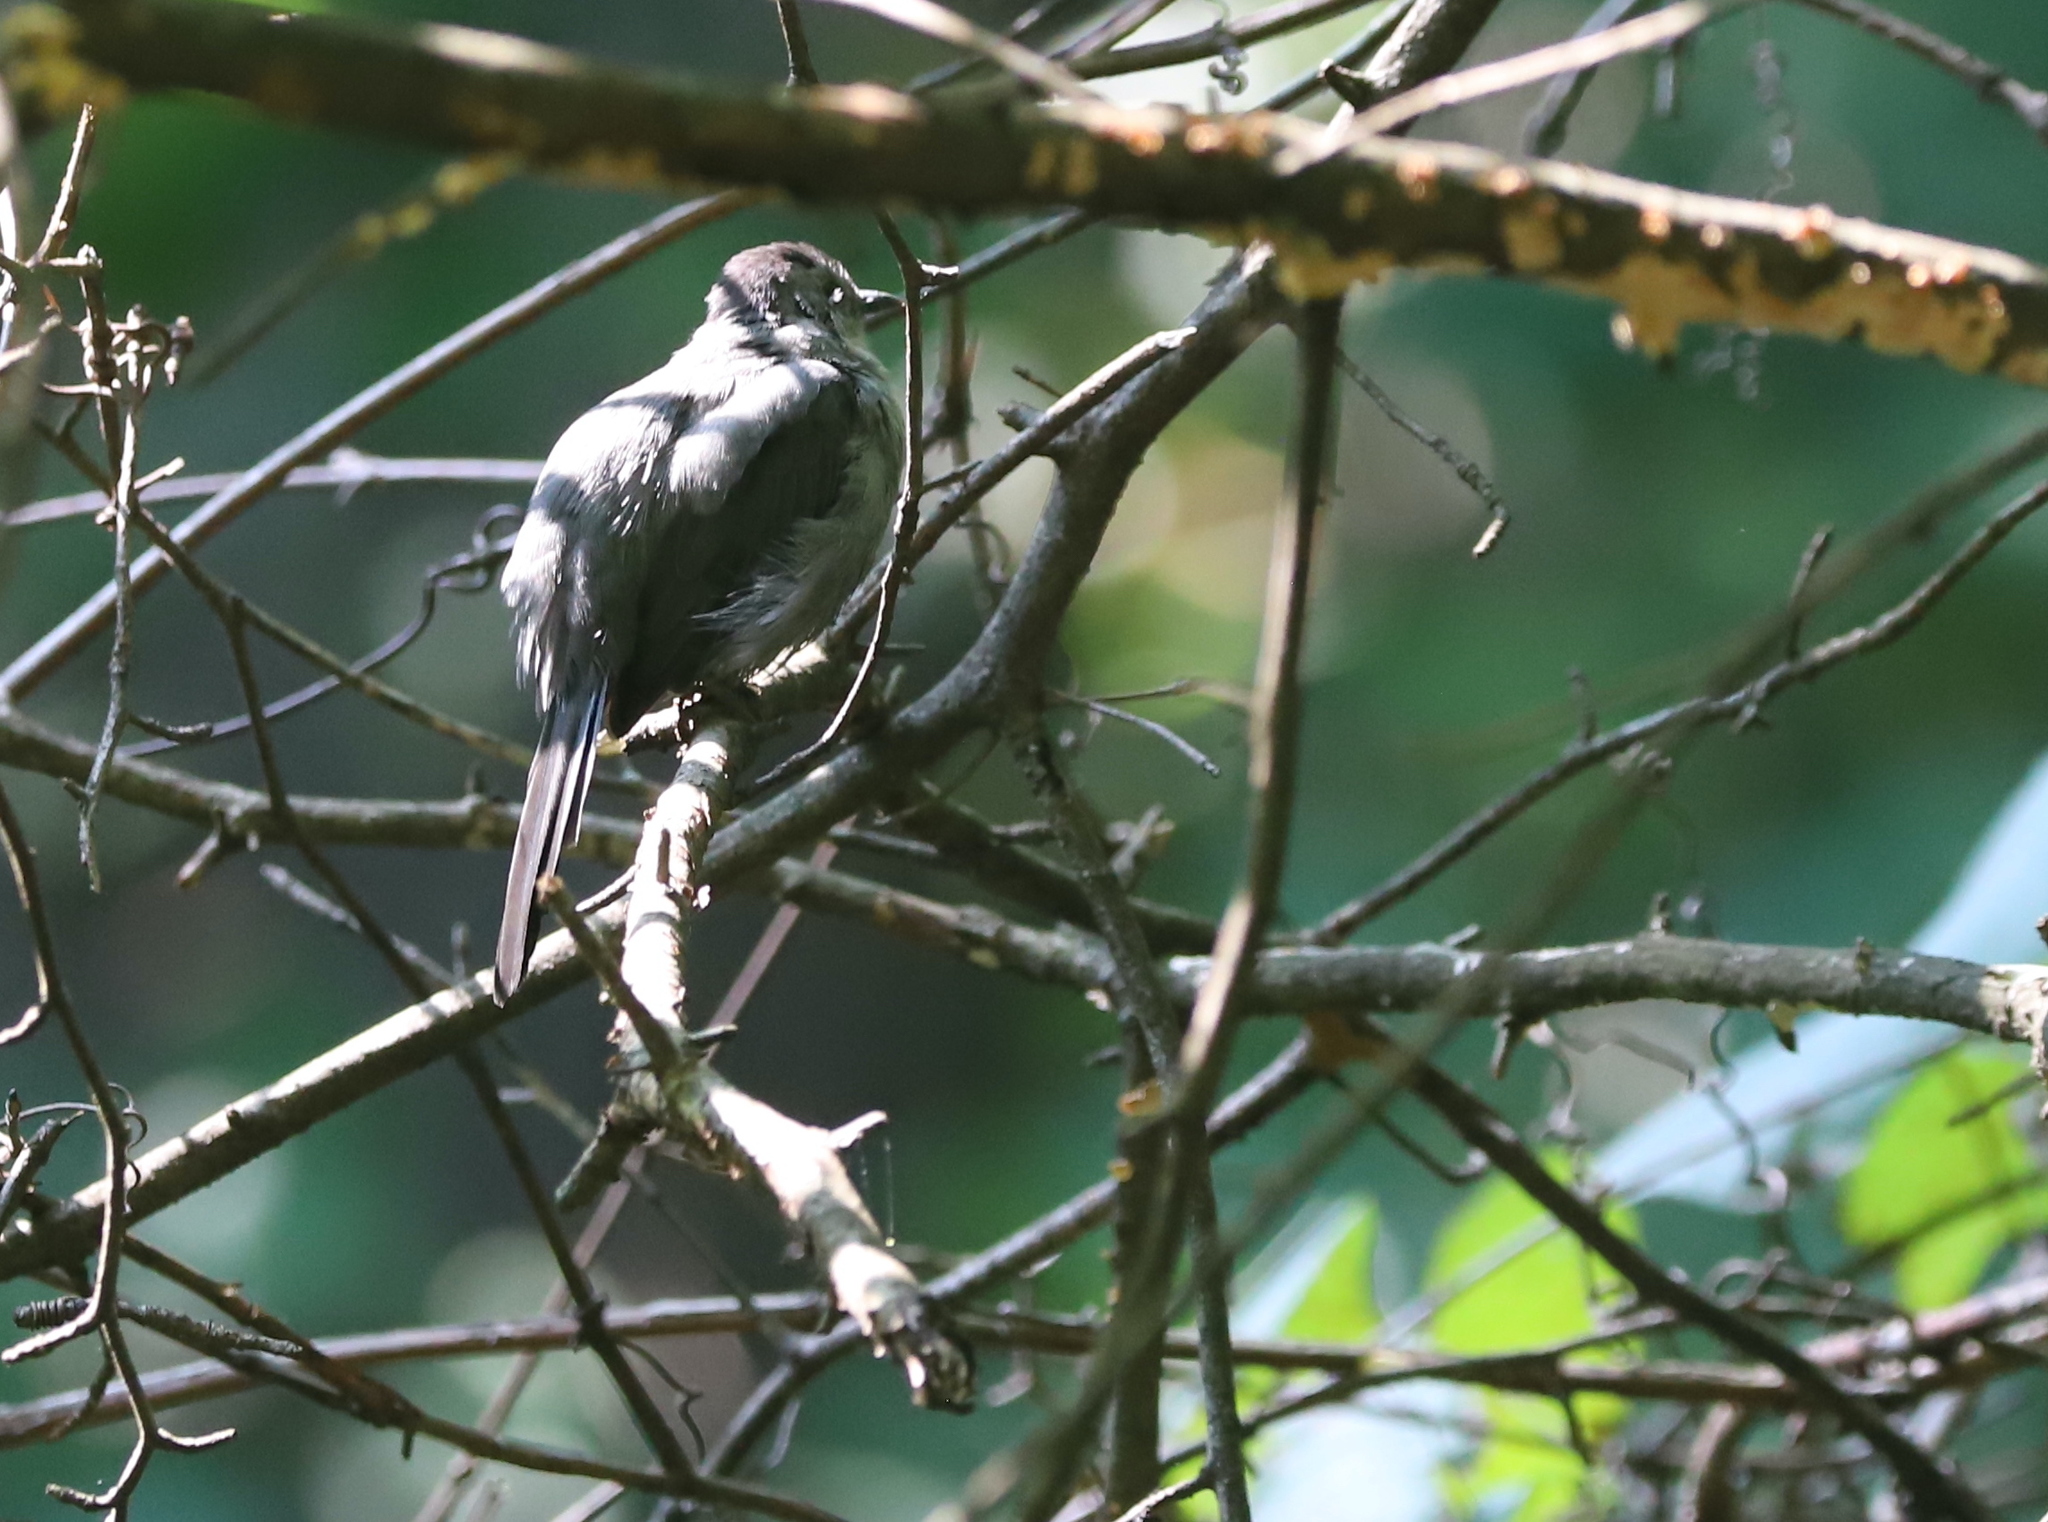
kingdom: Animalia
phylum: Chordata
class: Aves
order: Passeriformes
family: Turdidae
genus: Turdus
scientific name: Turdus migratorius
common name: American robin
